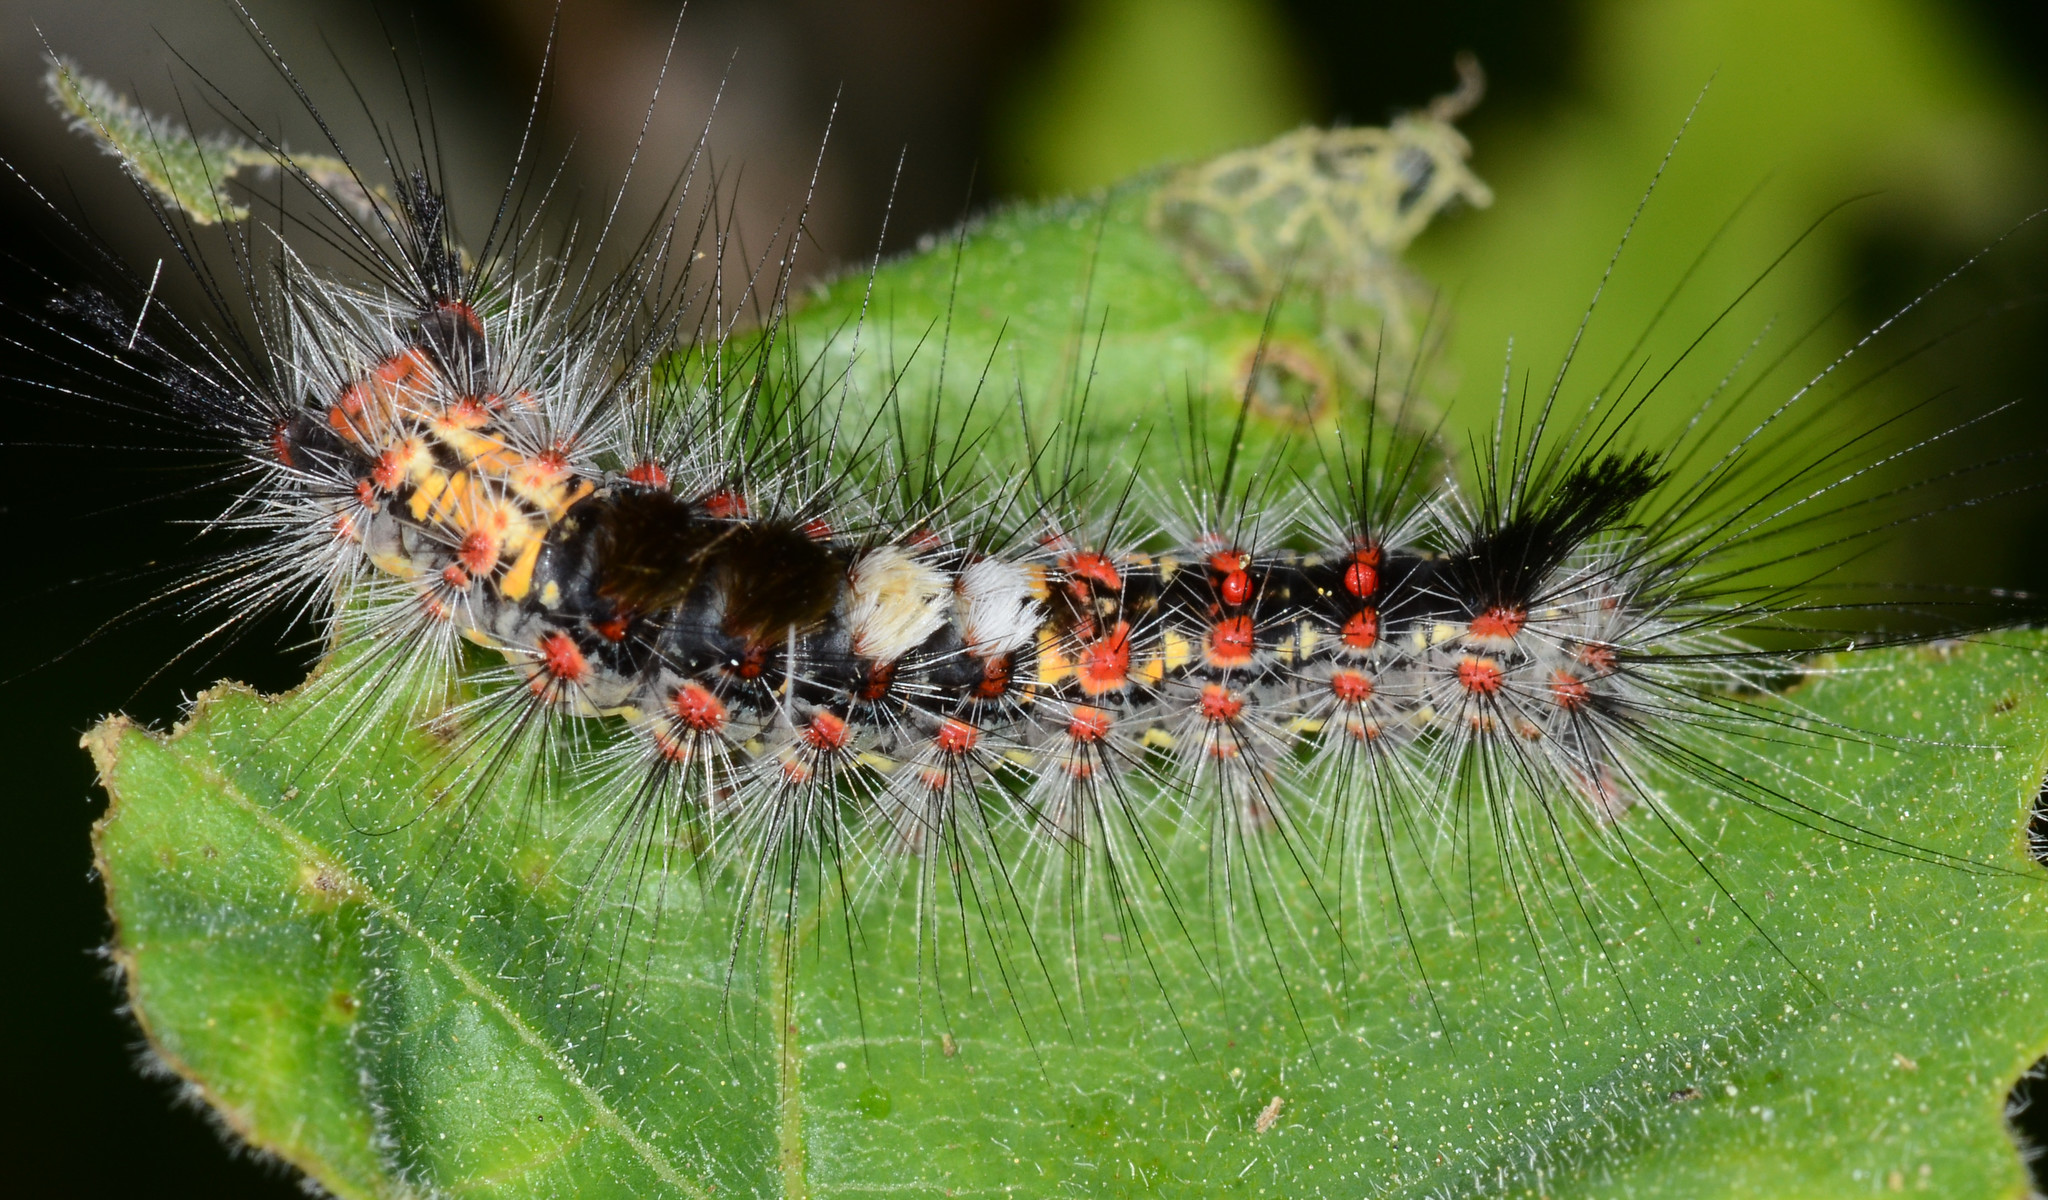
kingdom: Animalia
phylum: Arthropoda
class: Insecta
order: Lepidoptera
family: Erebidae
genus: Orgyia
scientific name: Orgyia vetusta
